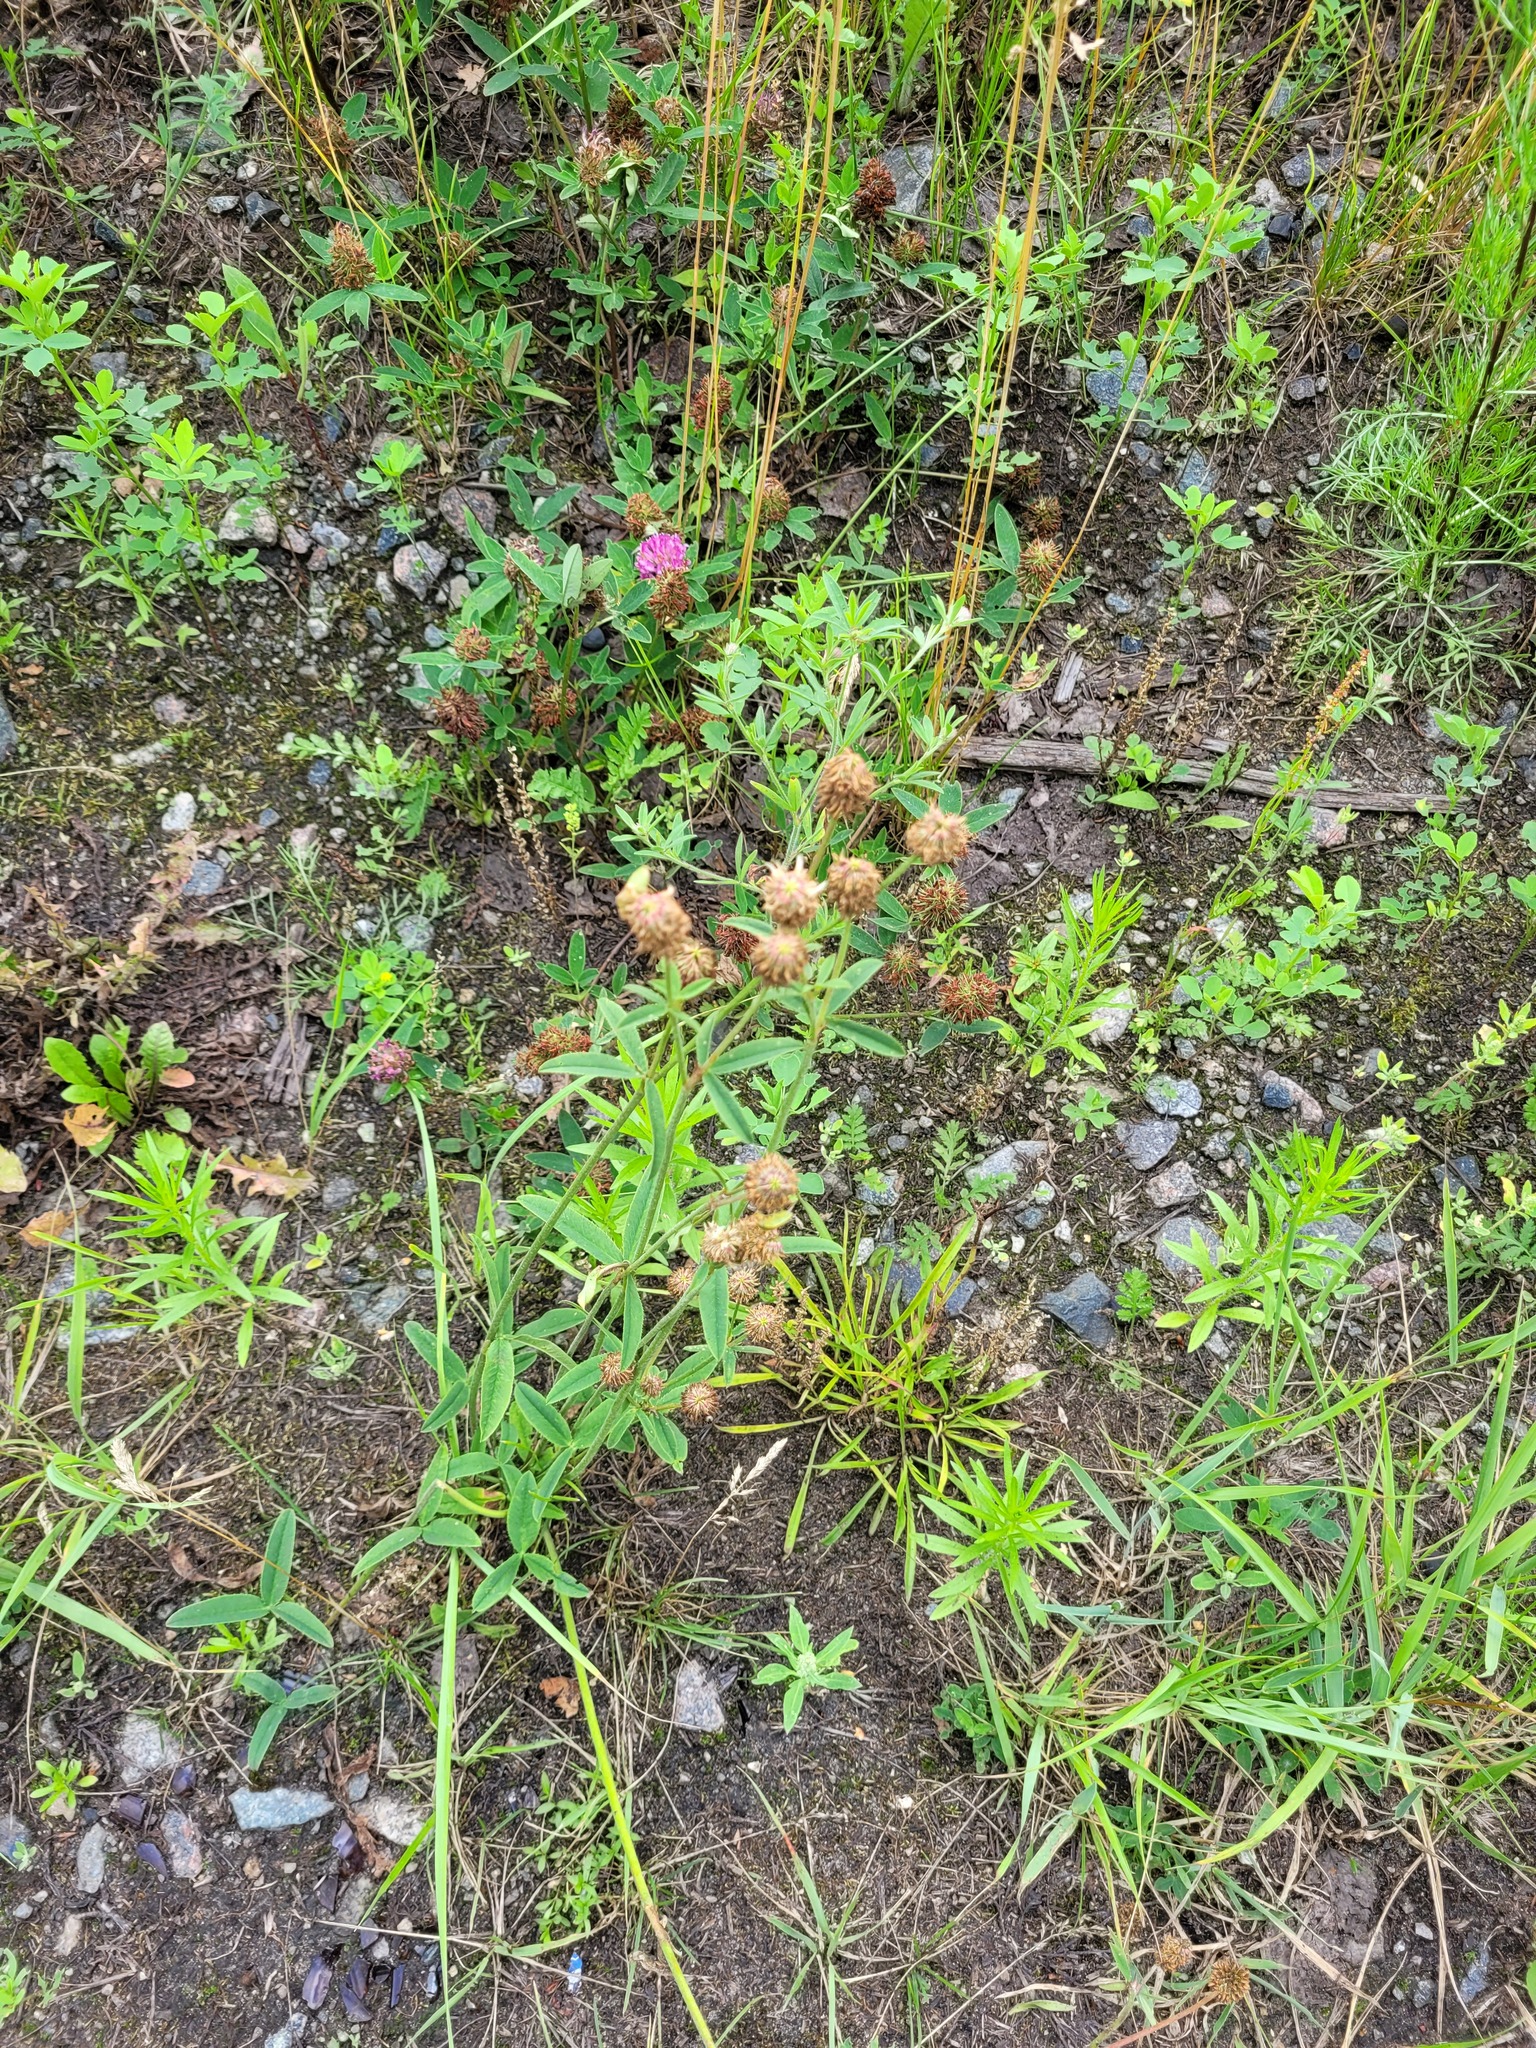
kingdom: Plantae
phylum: Tracheophyta
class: Magnoliopsida
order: Fabales
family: Fabaceae
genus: Trifolium
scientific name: Trifolium montanum
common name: Mountain clover
